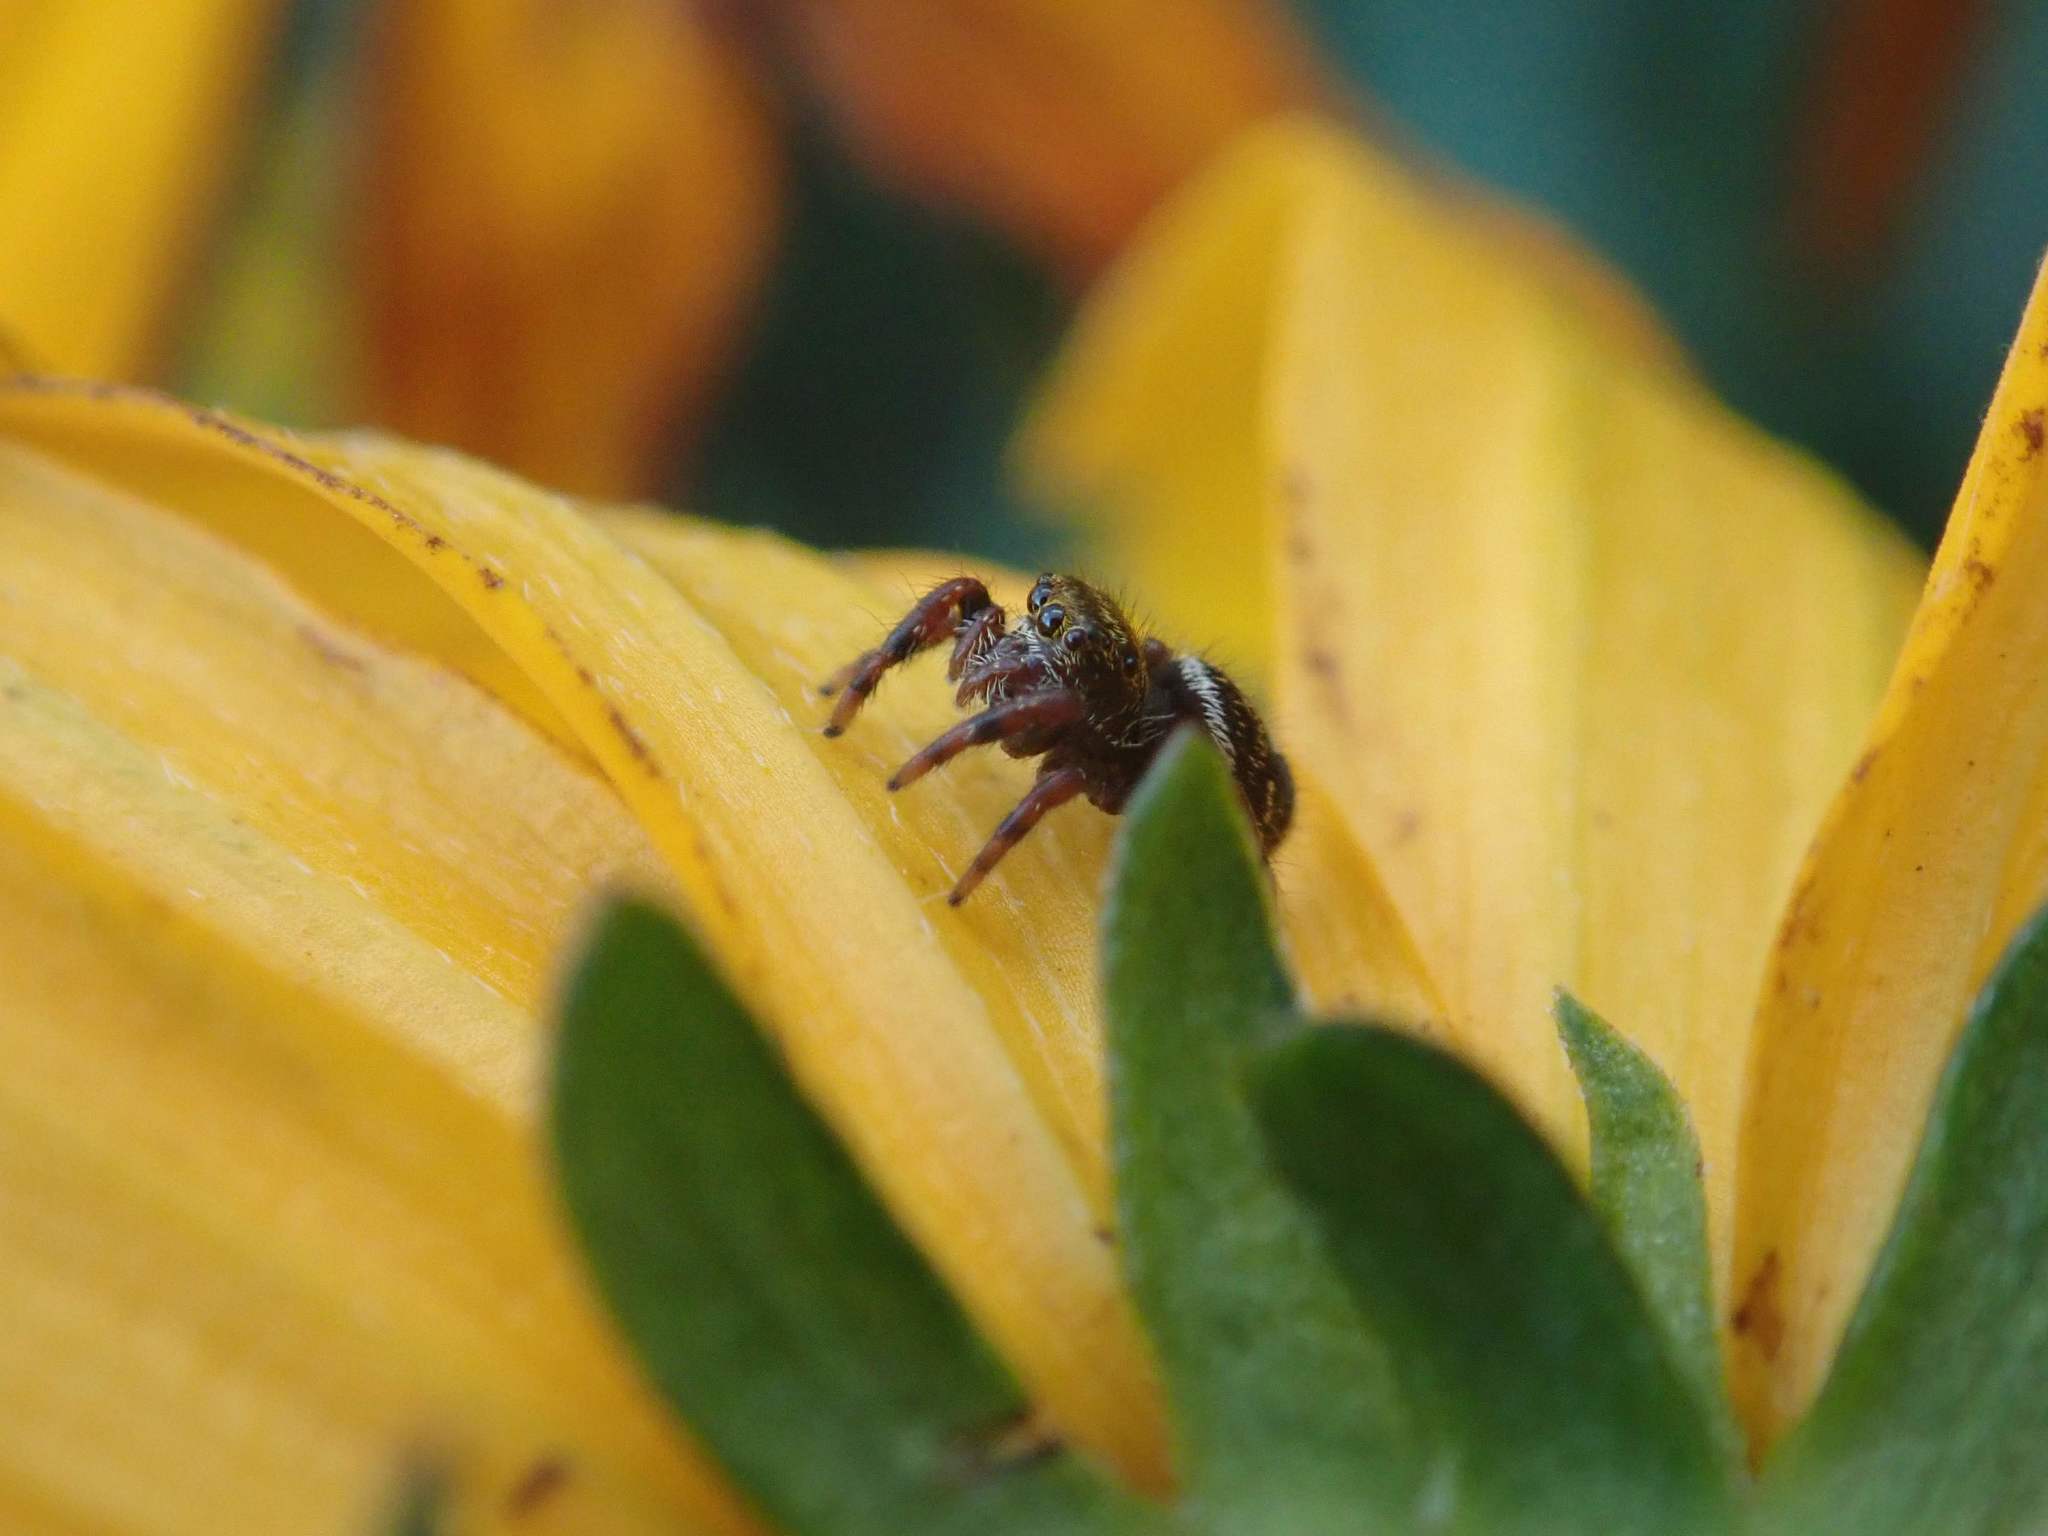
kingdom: Animalia
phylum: Arthropoda
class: Arachnida
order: Araneae
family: Salticidae
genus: Phidippus
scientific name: Phidippus audax
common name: Bold jumper
